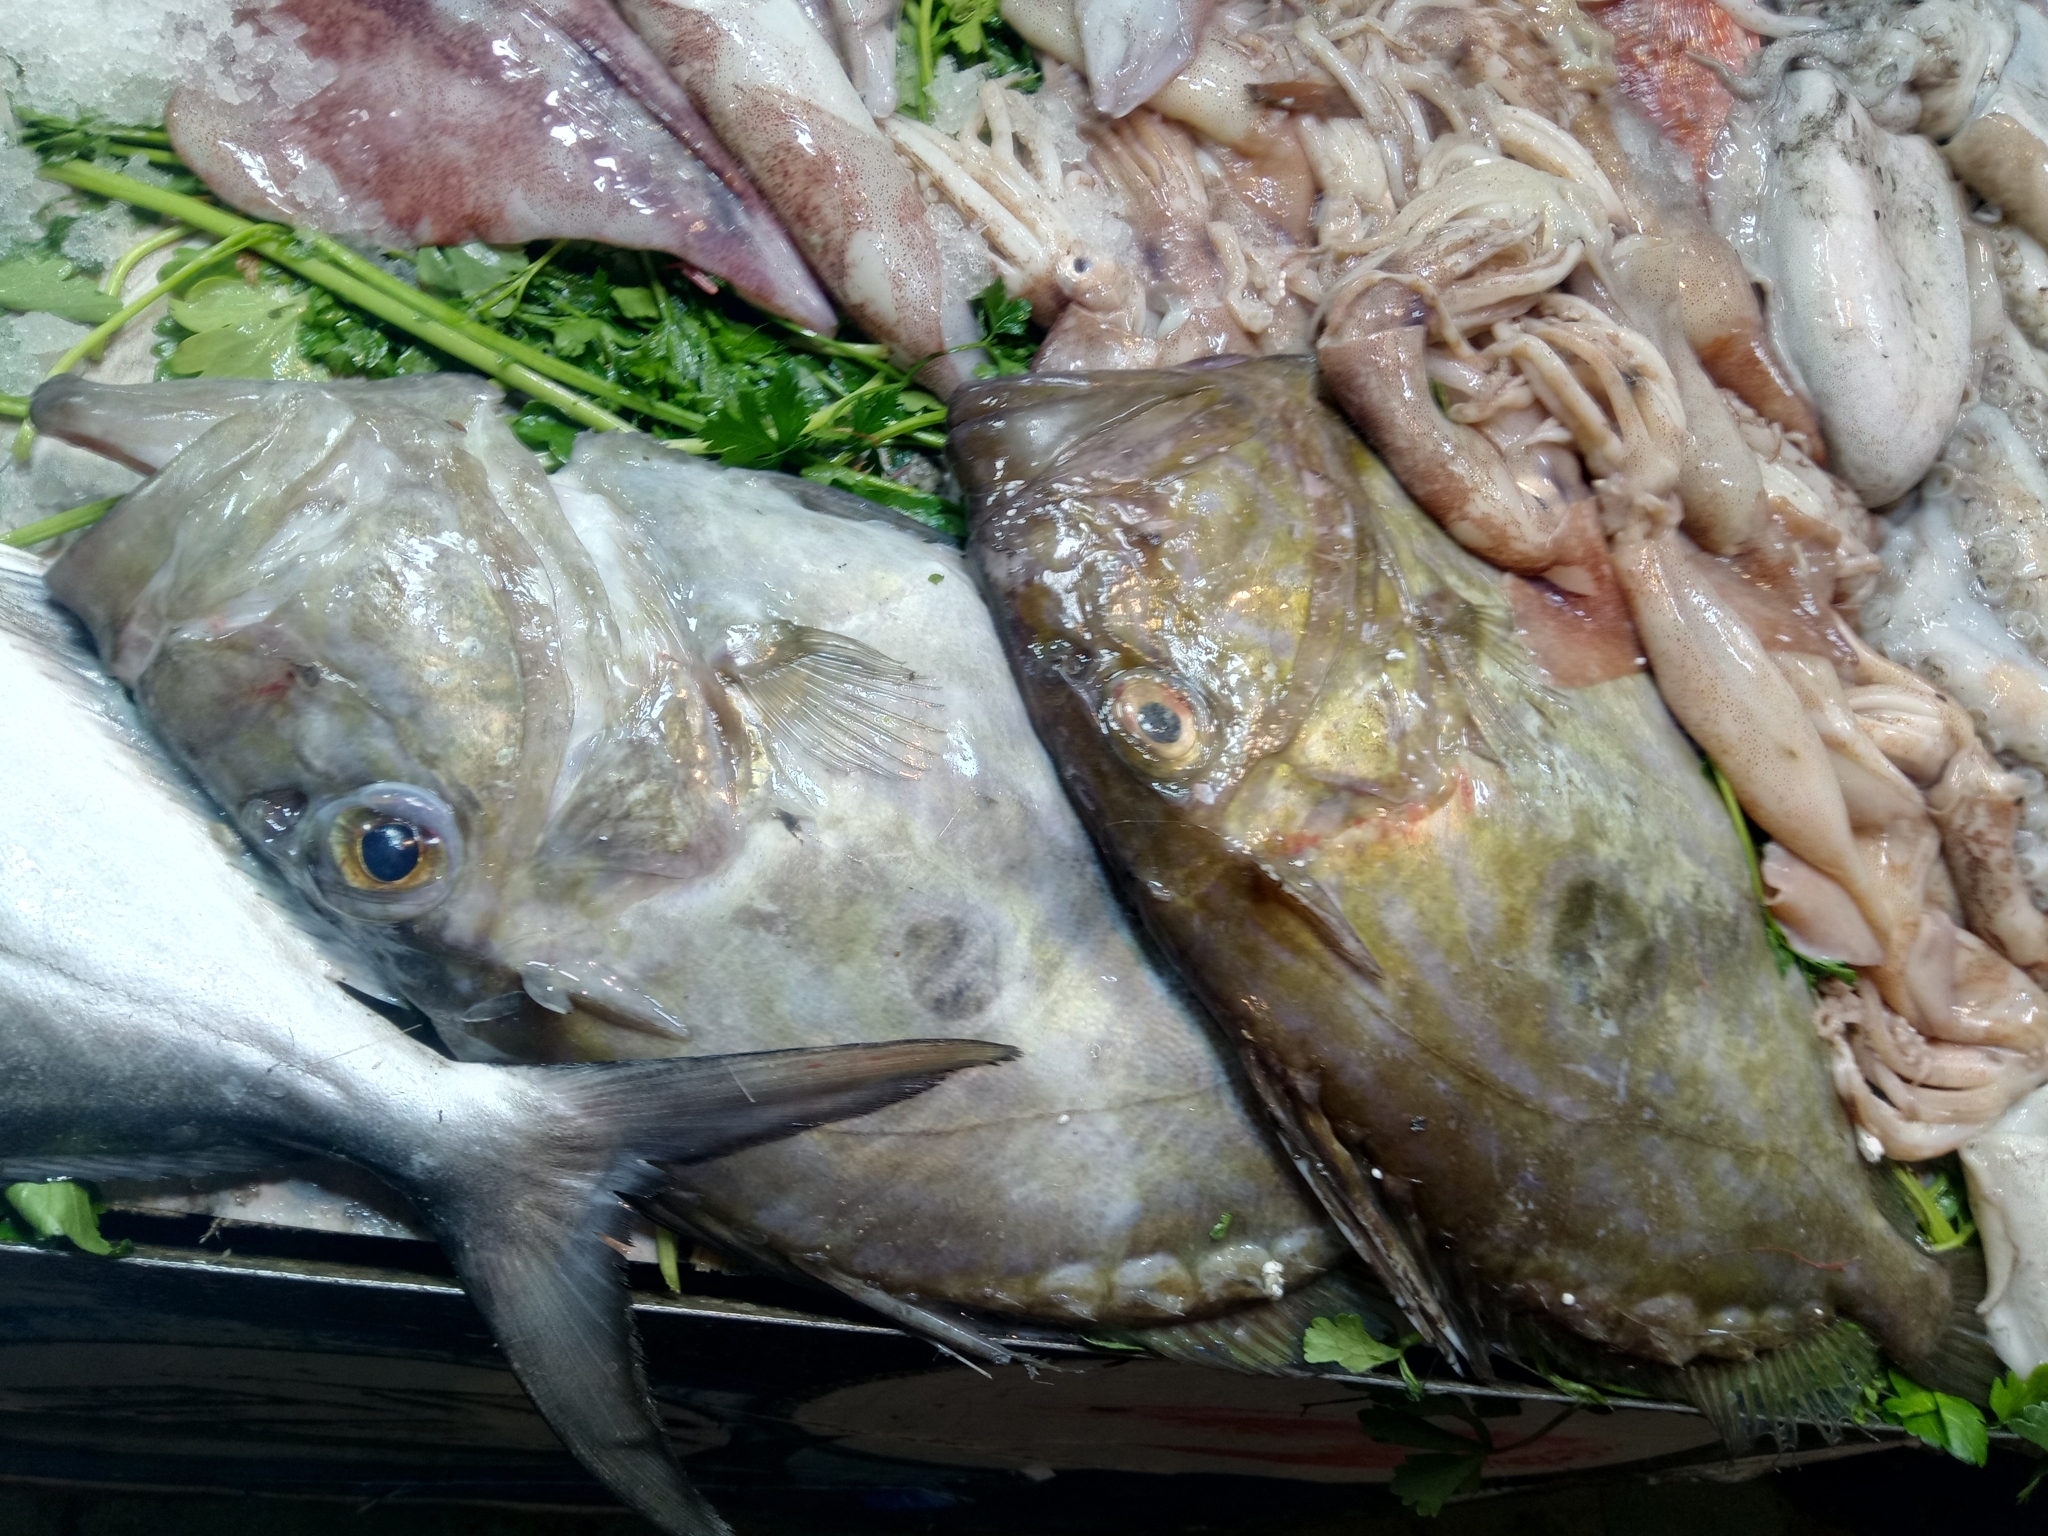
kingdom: Animalia
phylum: Chordata
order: Zeiformes
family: Zeidae
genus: Zeus
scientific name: Zeus faber
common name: John dory
